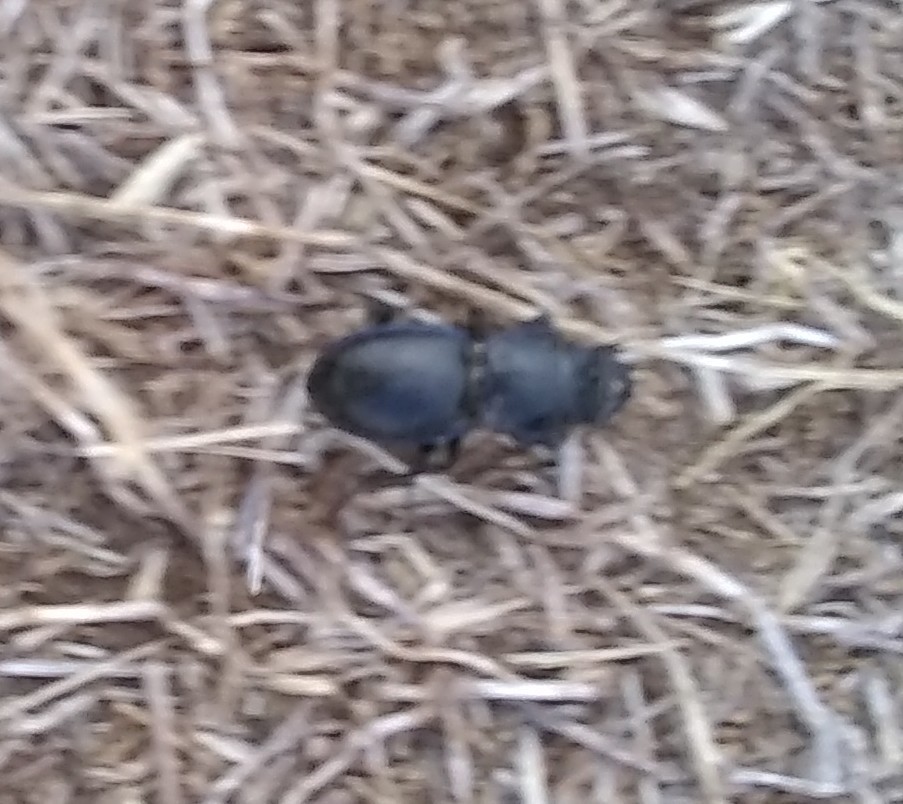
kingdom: Animalia
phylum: Arthropoda
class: Insecta
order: Coleoptera
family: Carabidae
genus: Pasimachus
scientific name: Pasimachus
